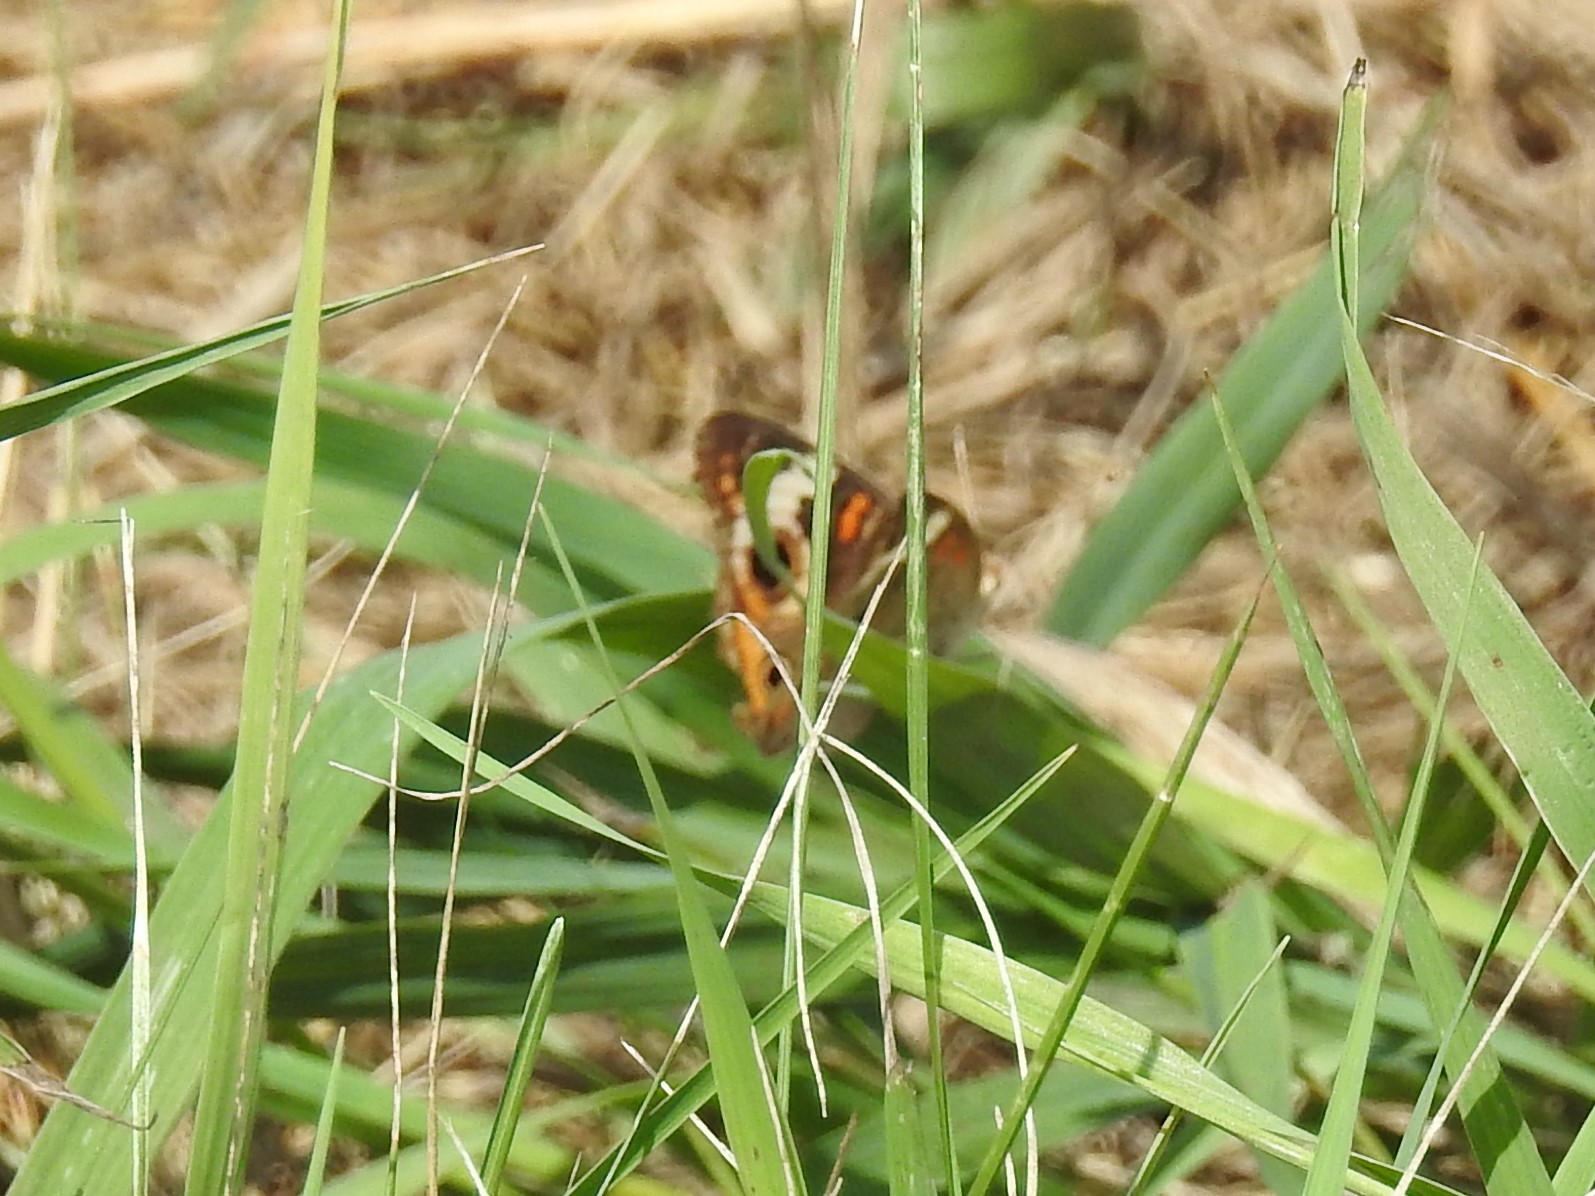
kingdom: Animalia
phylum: Arthropoda
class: Insecta
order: Lepidoptera
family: Nymphalidae
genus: Junonia
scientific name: Junonia coenia
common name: Common buckeye
